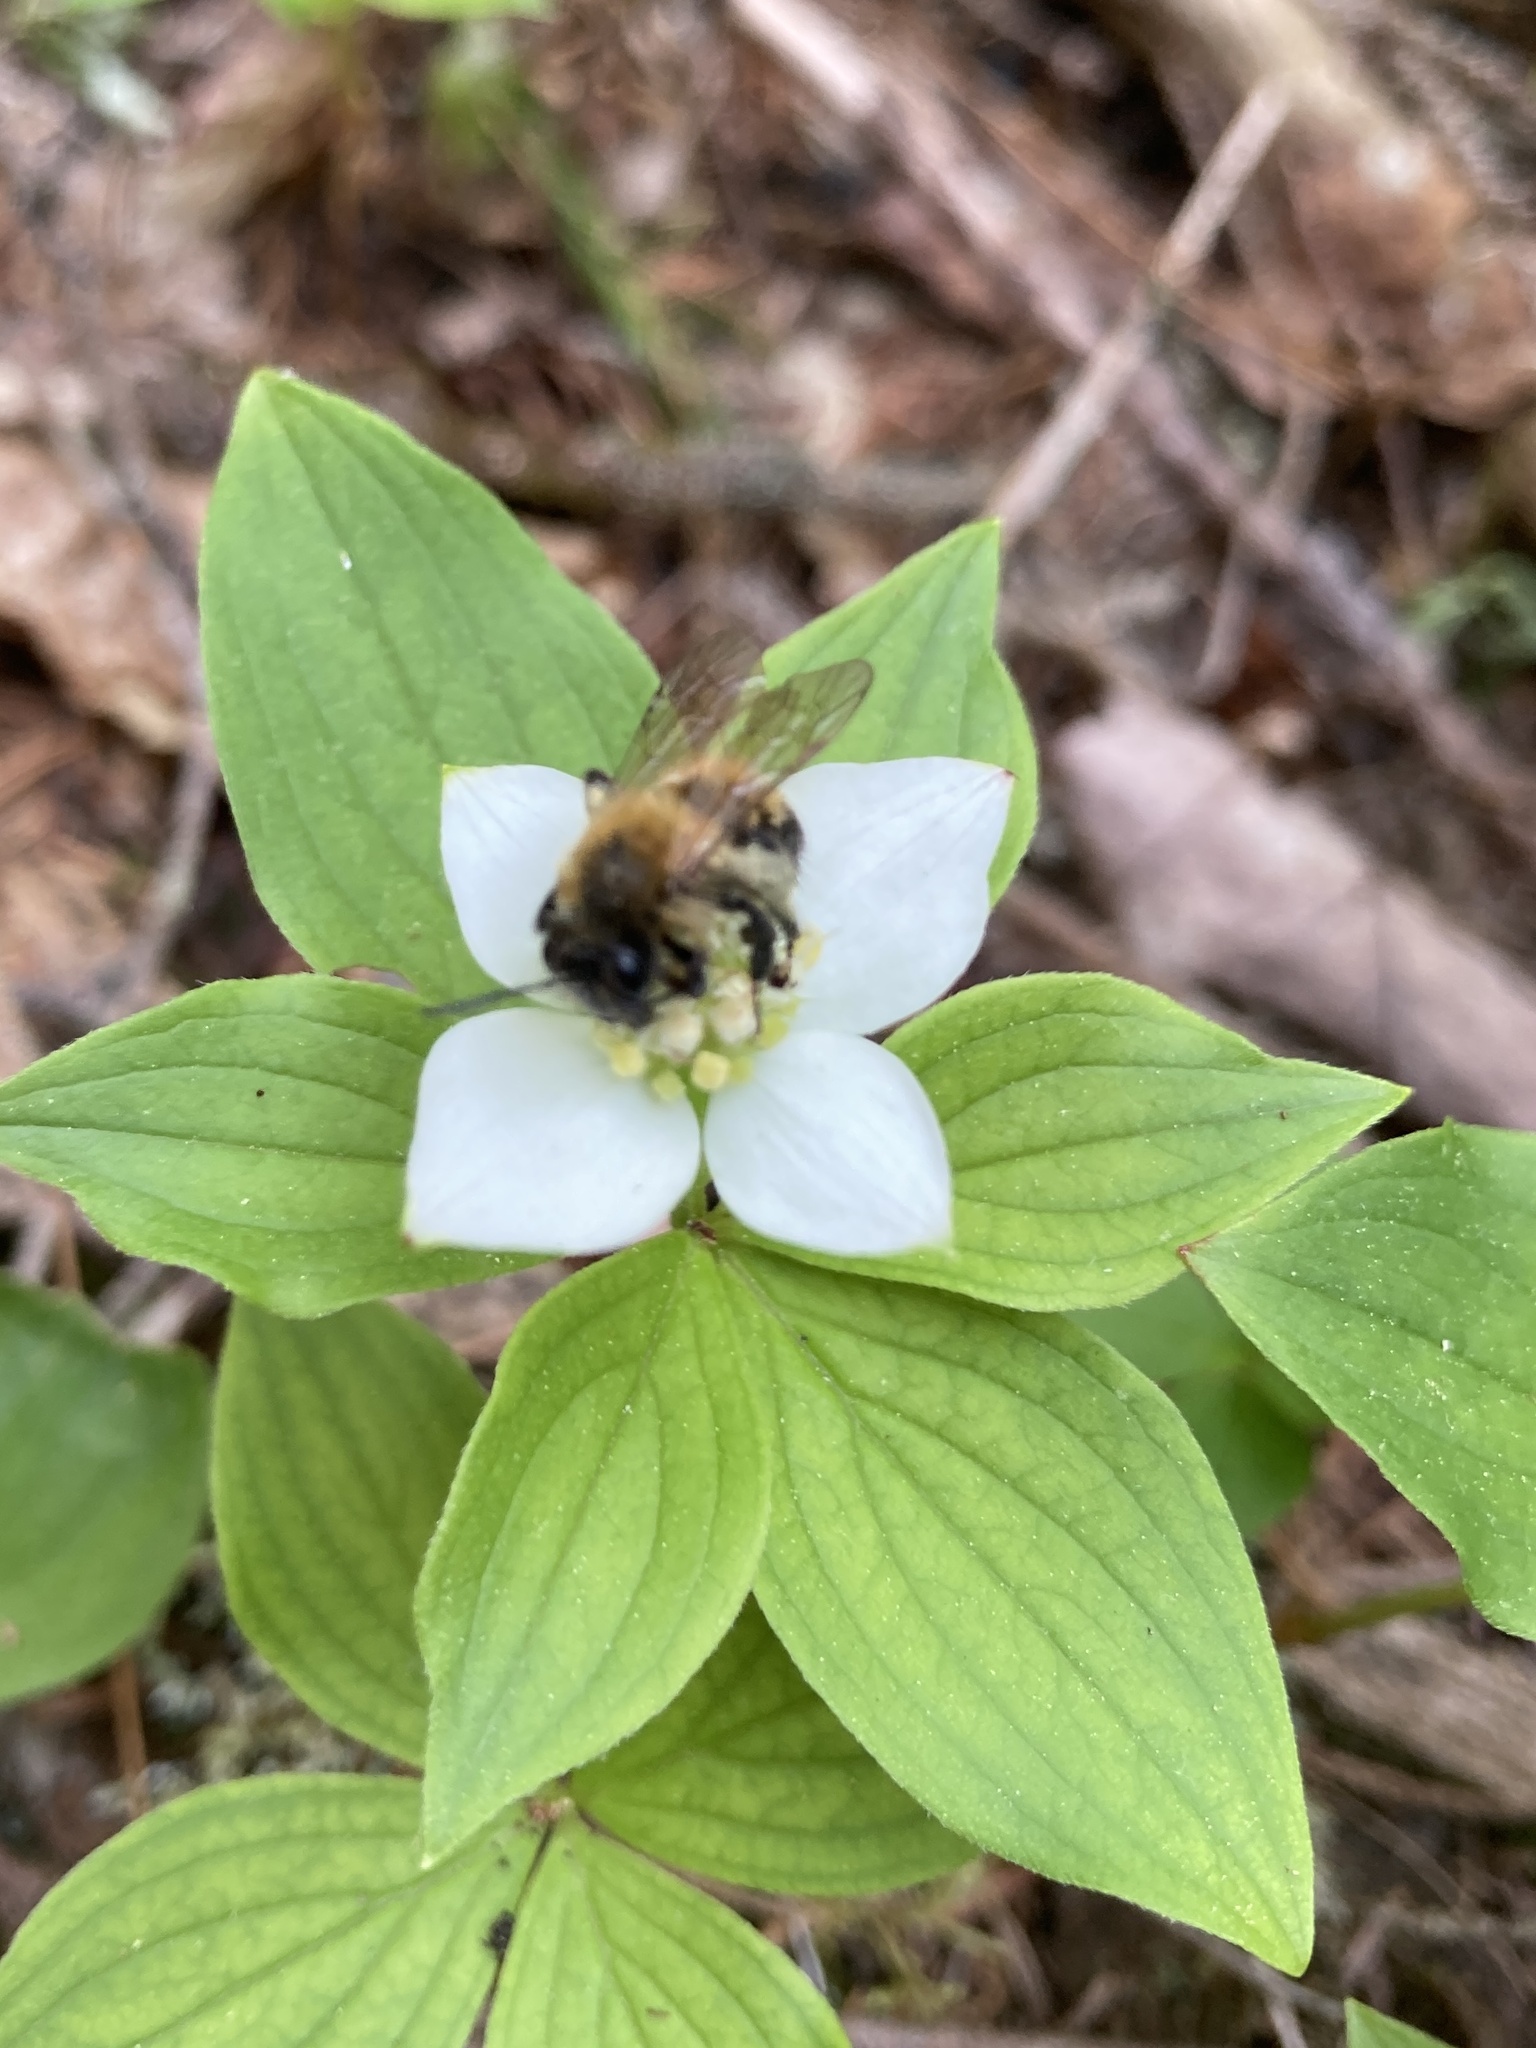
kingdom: Animalia
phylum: Arthropoda
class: Insecta
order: Hymenoptera
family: Andrenidae
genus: Andrena
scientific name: Andrena milwaukeensis
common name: Milwaukee mining bee
